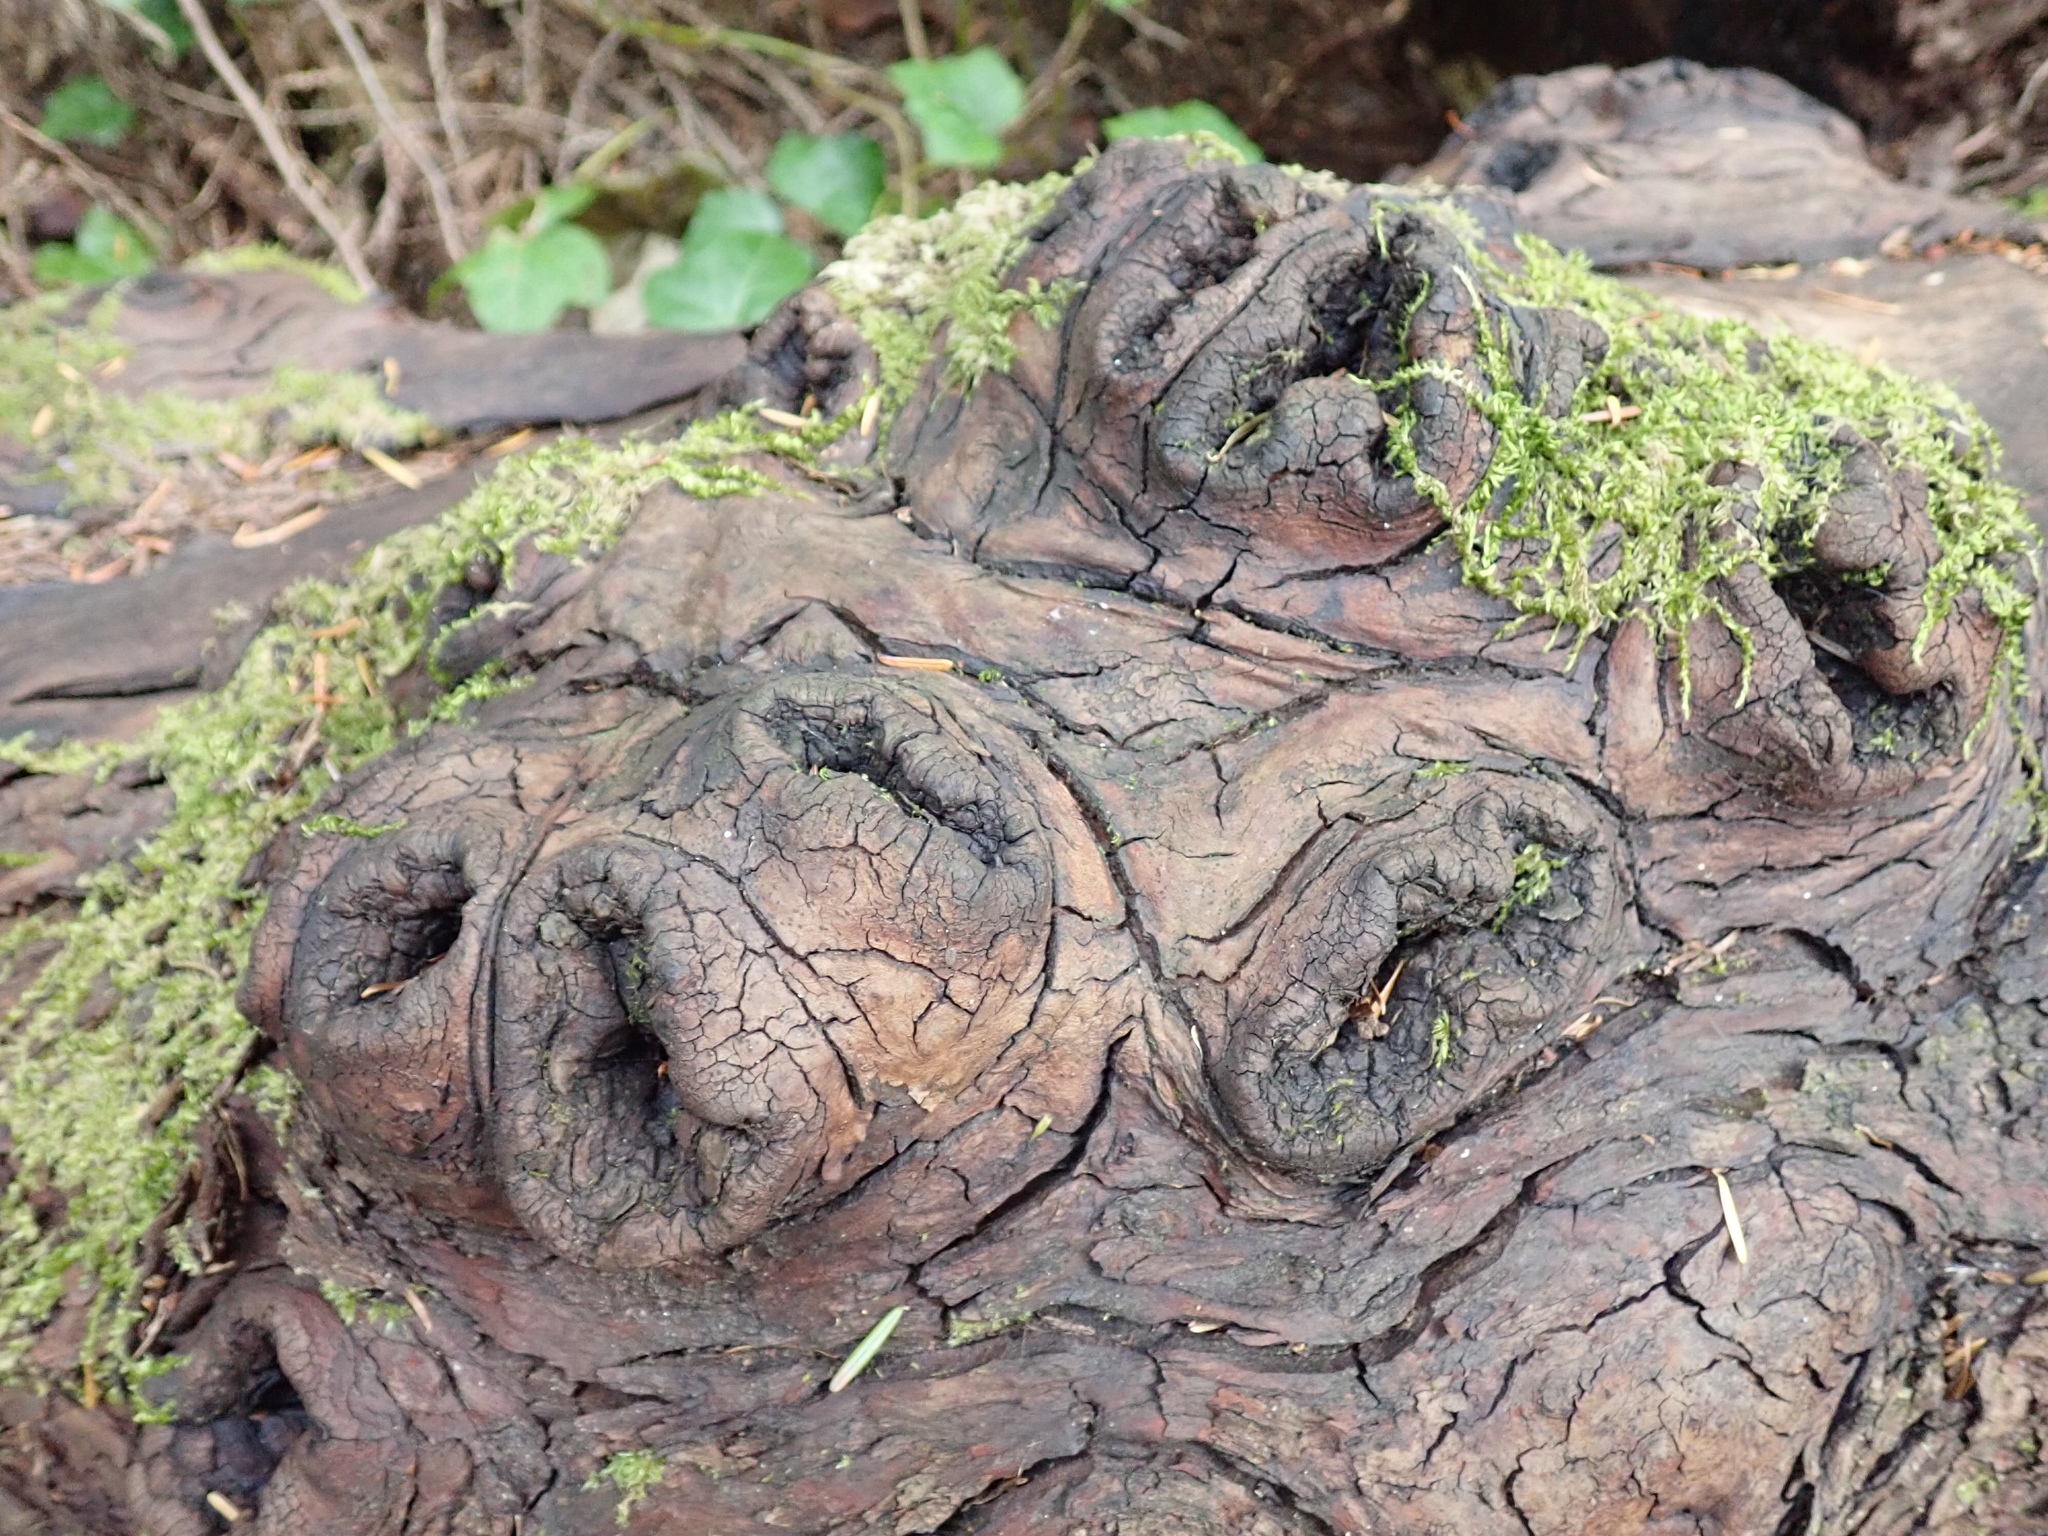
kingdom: Plantae
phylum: Tracheophyta
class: Magnoliopsida
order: Ericales
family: Ericaceae
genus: Arbutus
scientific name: Arbutus menziesii
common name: Pacific madrone
